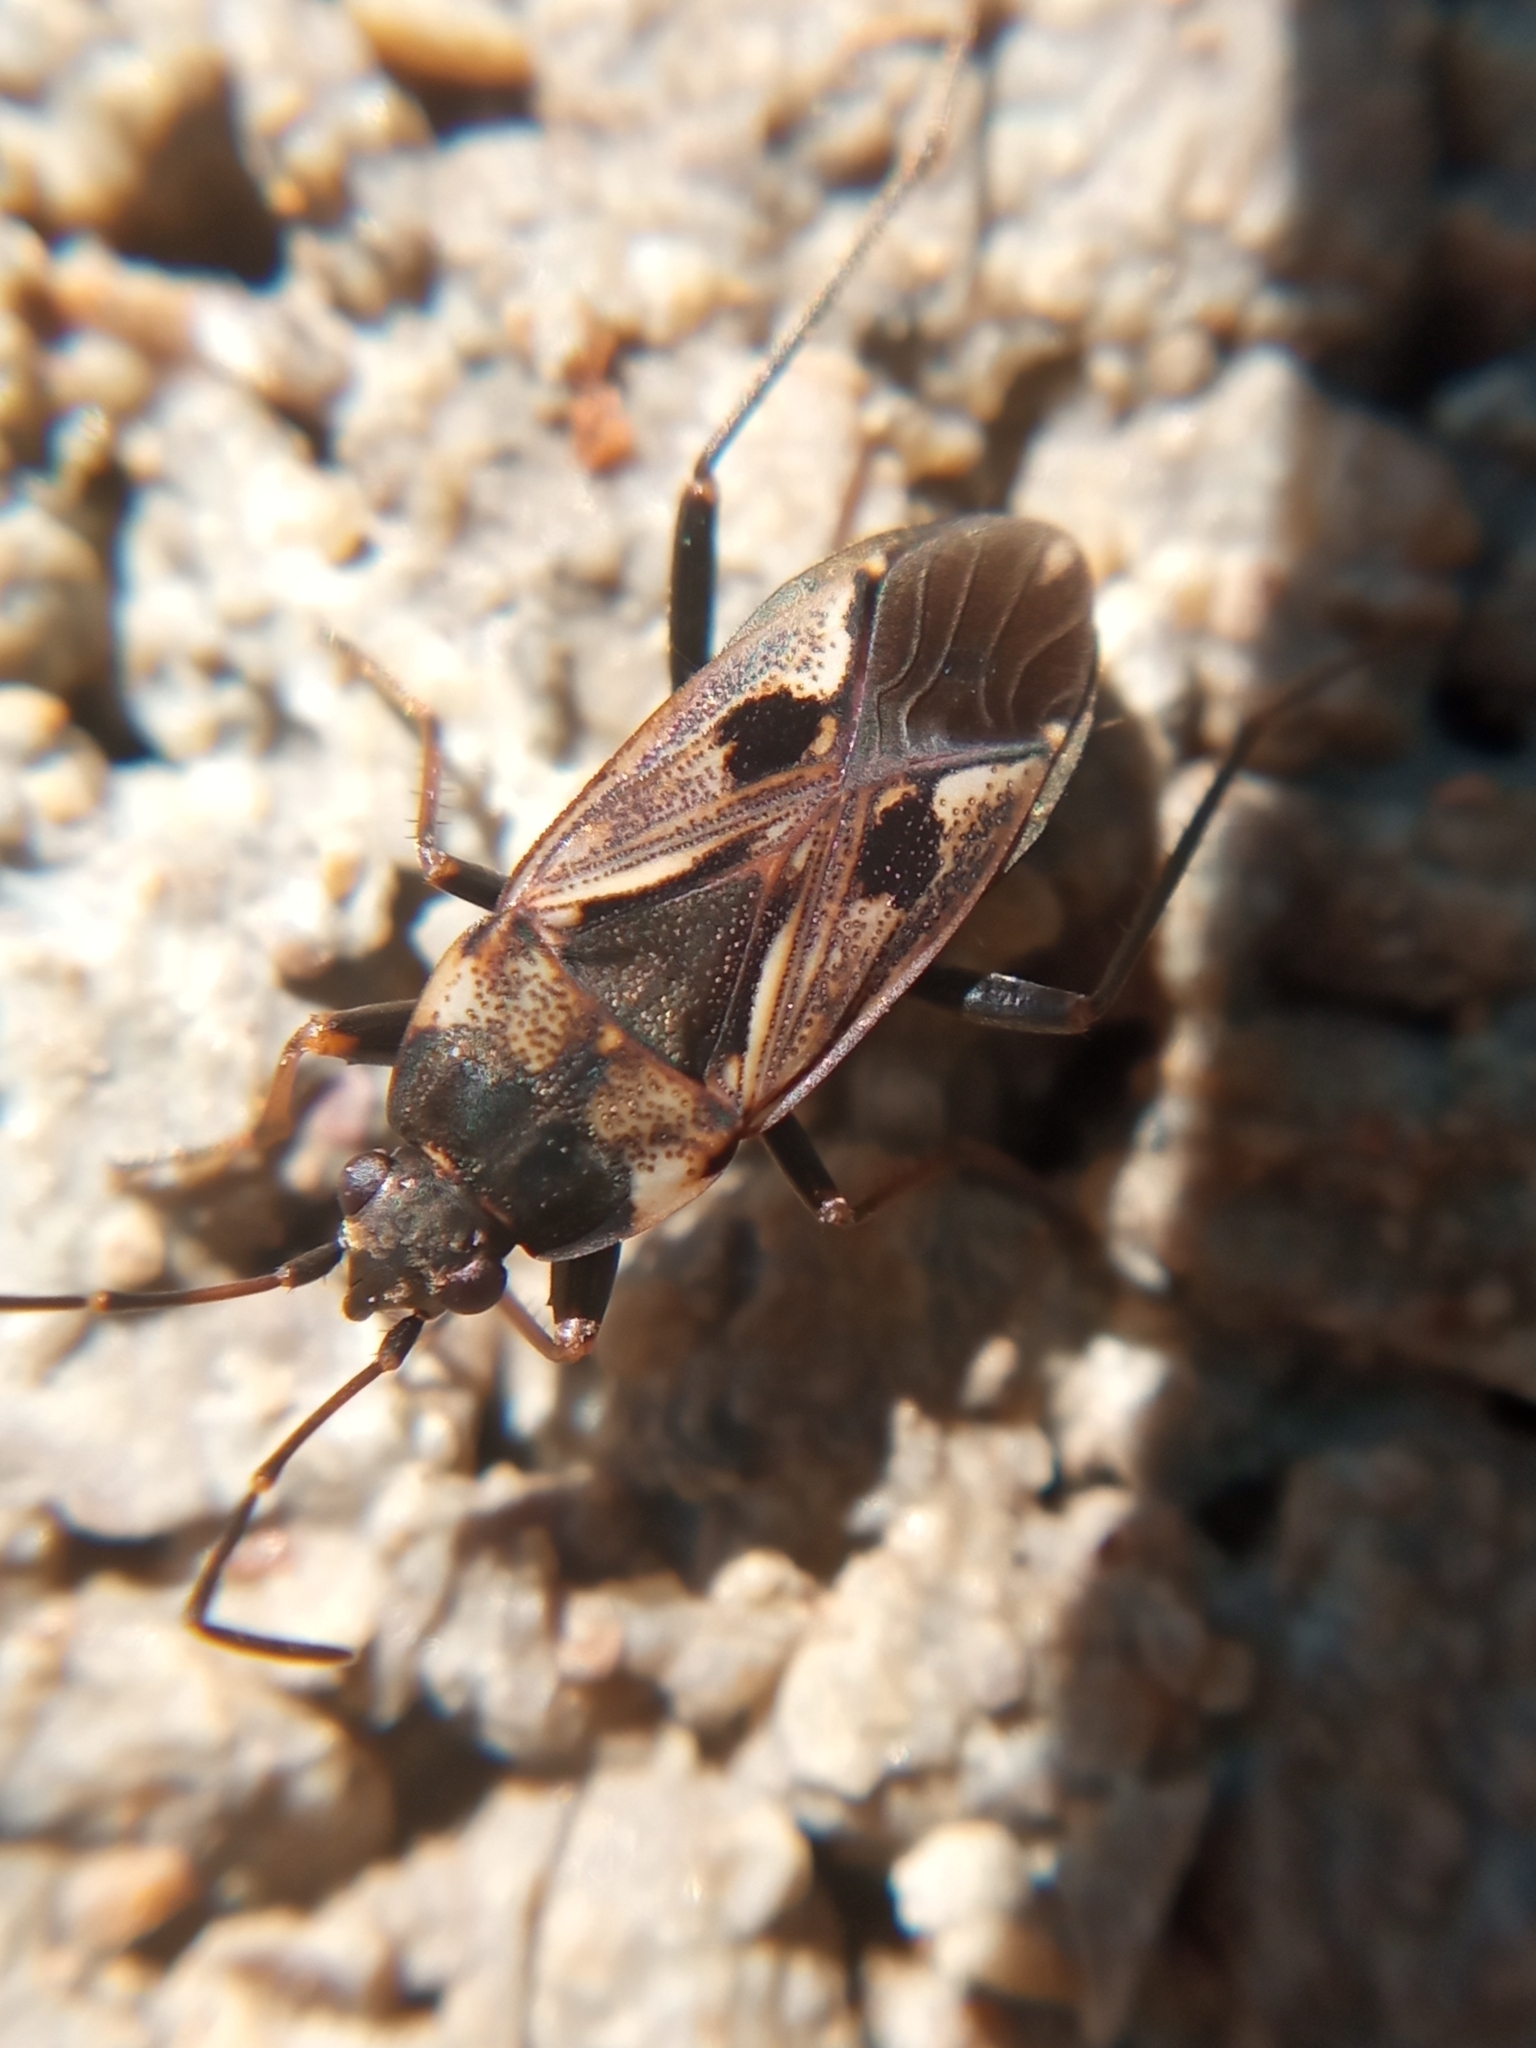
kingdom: Animalia
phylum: Arthropoda
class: Insecta
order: Hemiptera
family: Rhyparochromidae
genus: Rhyparochromus
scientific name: Rhyparochromus vulgaris
